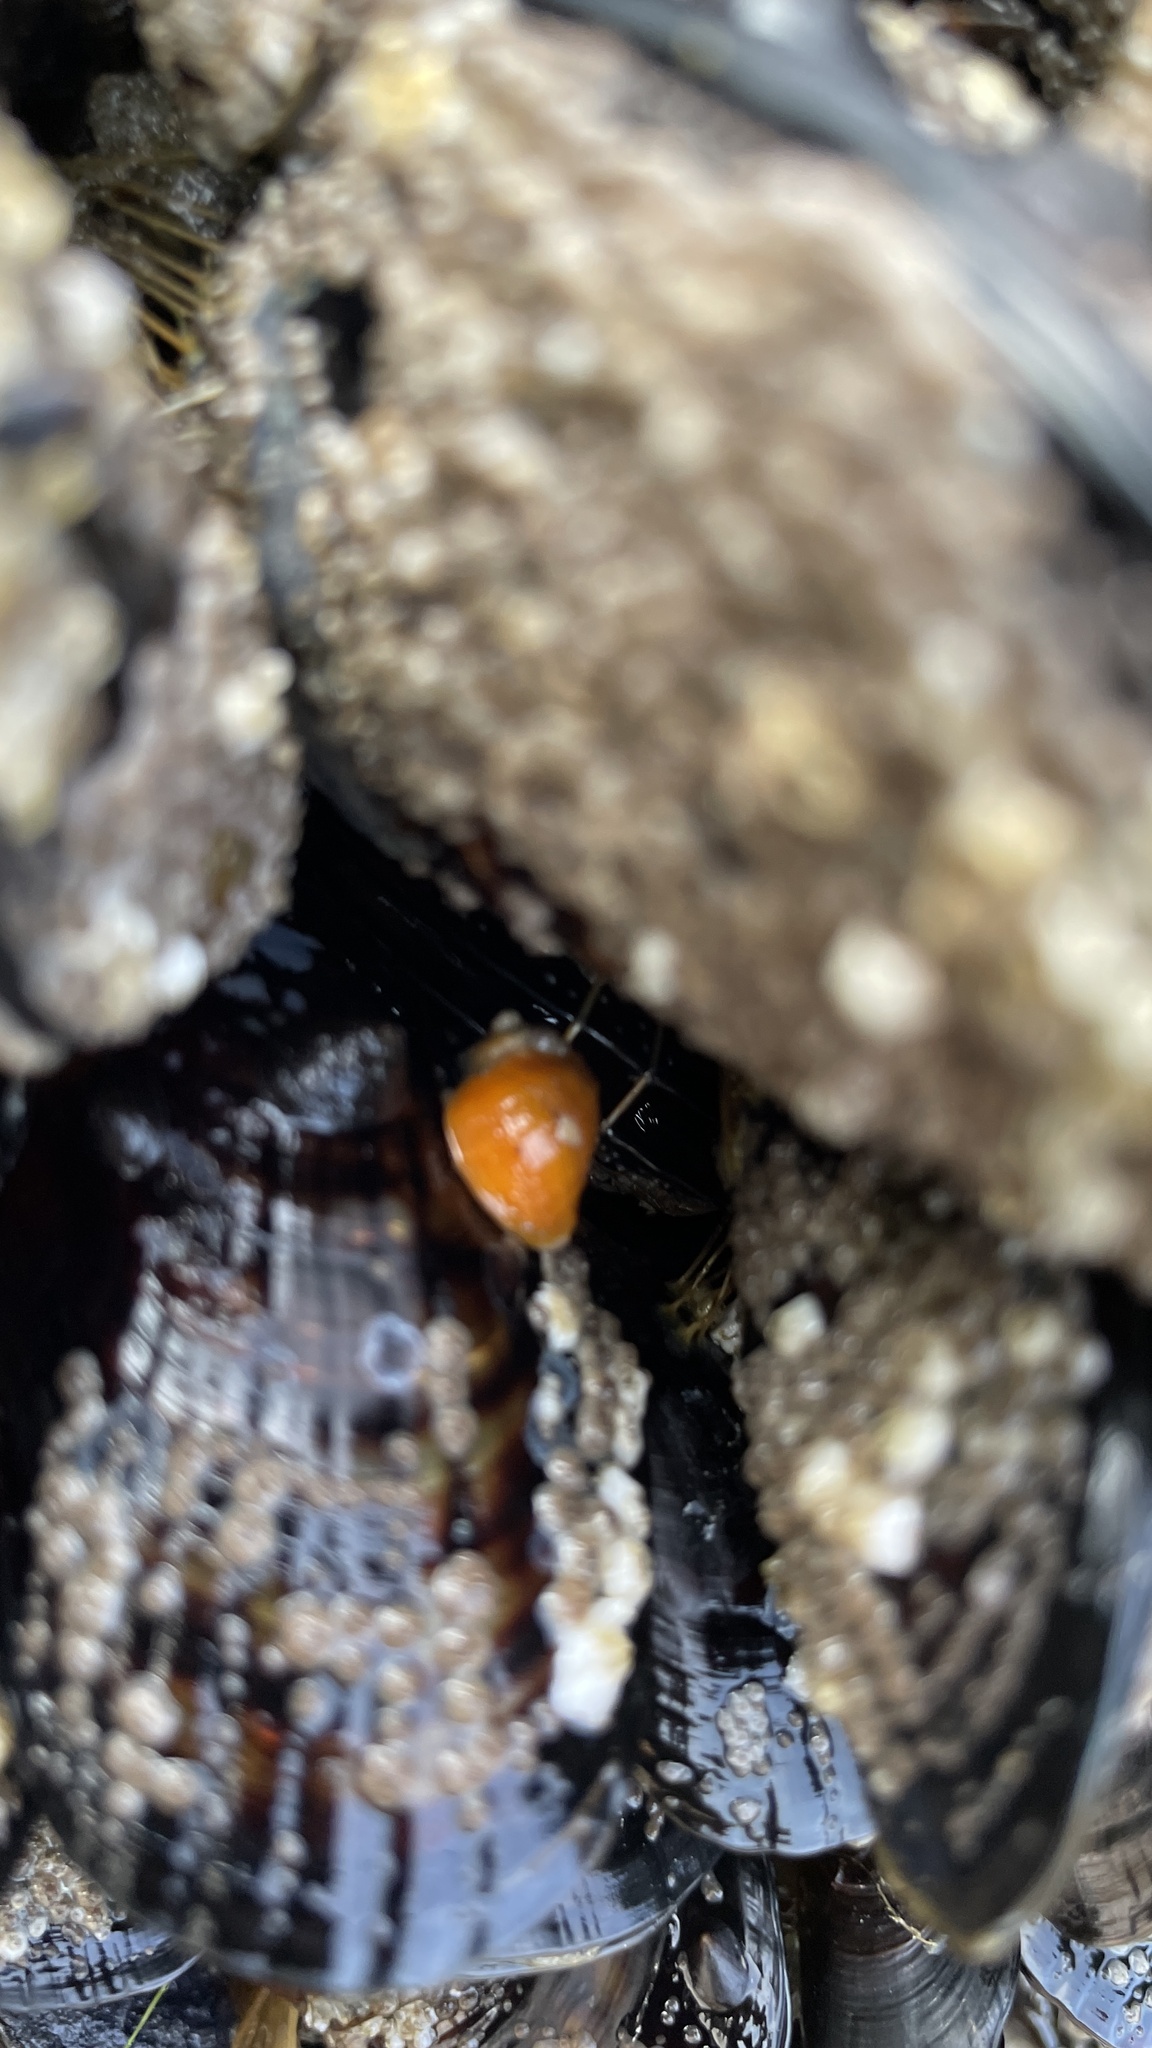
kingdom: Animalia
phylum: Mollusca
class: Gastropoda
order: Neogastropoda
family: Muricidae
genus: Nucella
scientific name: Nucella ostrina
